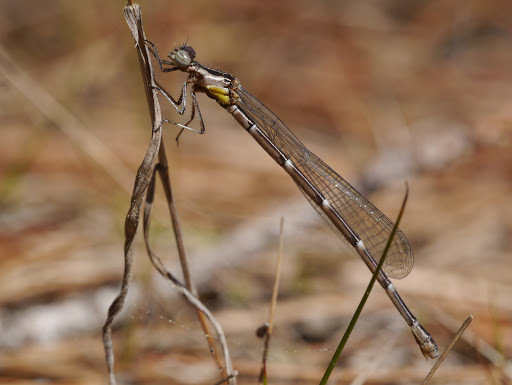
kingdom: Animalia
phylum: Arthropoda
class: Insecta
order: Odonata
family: Coenagrionidae
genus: Chromagrion
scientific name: Chromagrion conditum
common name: Aurora damsel
